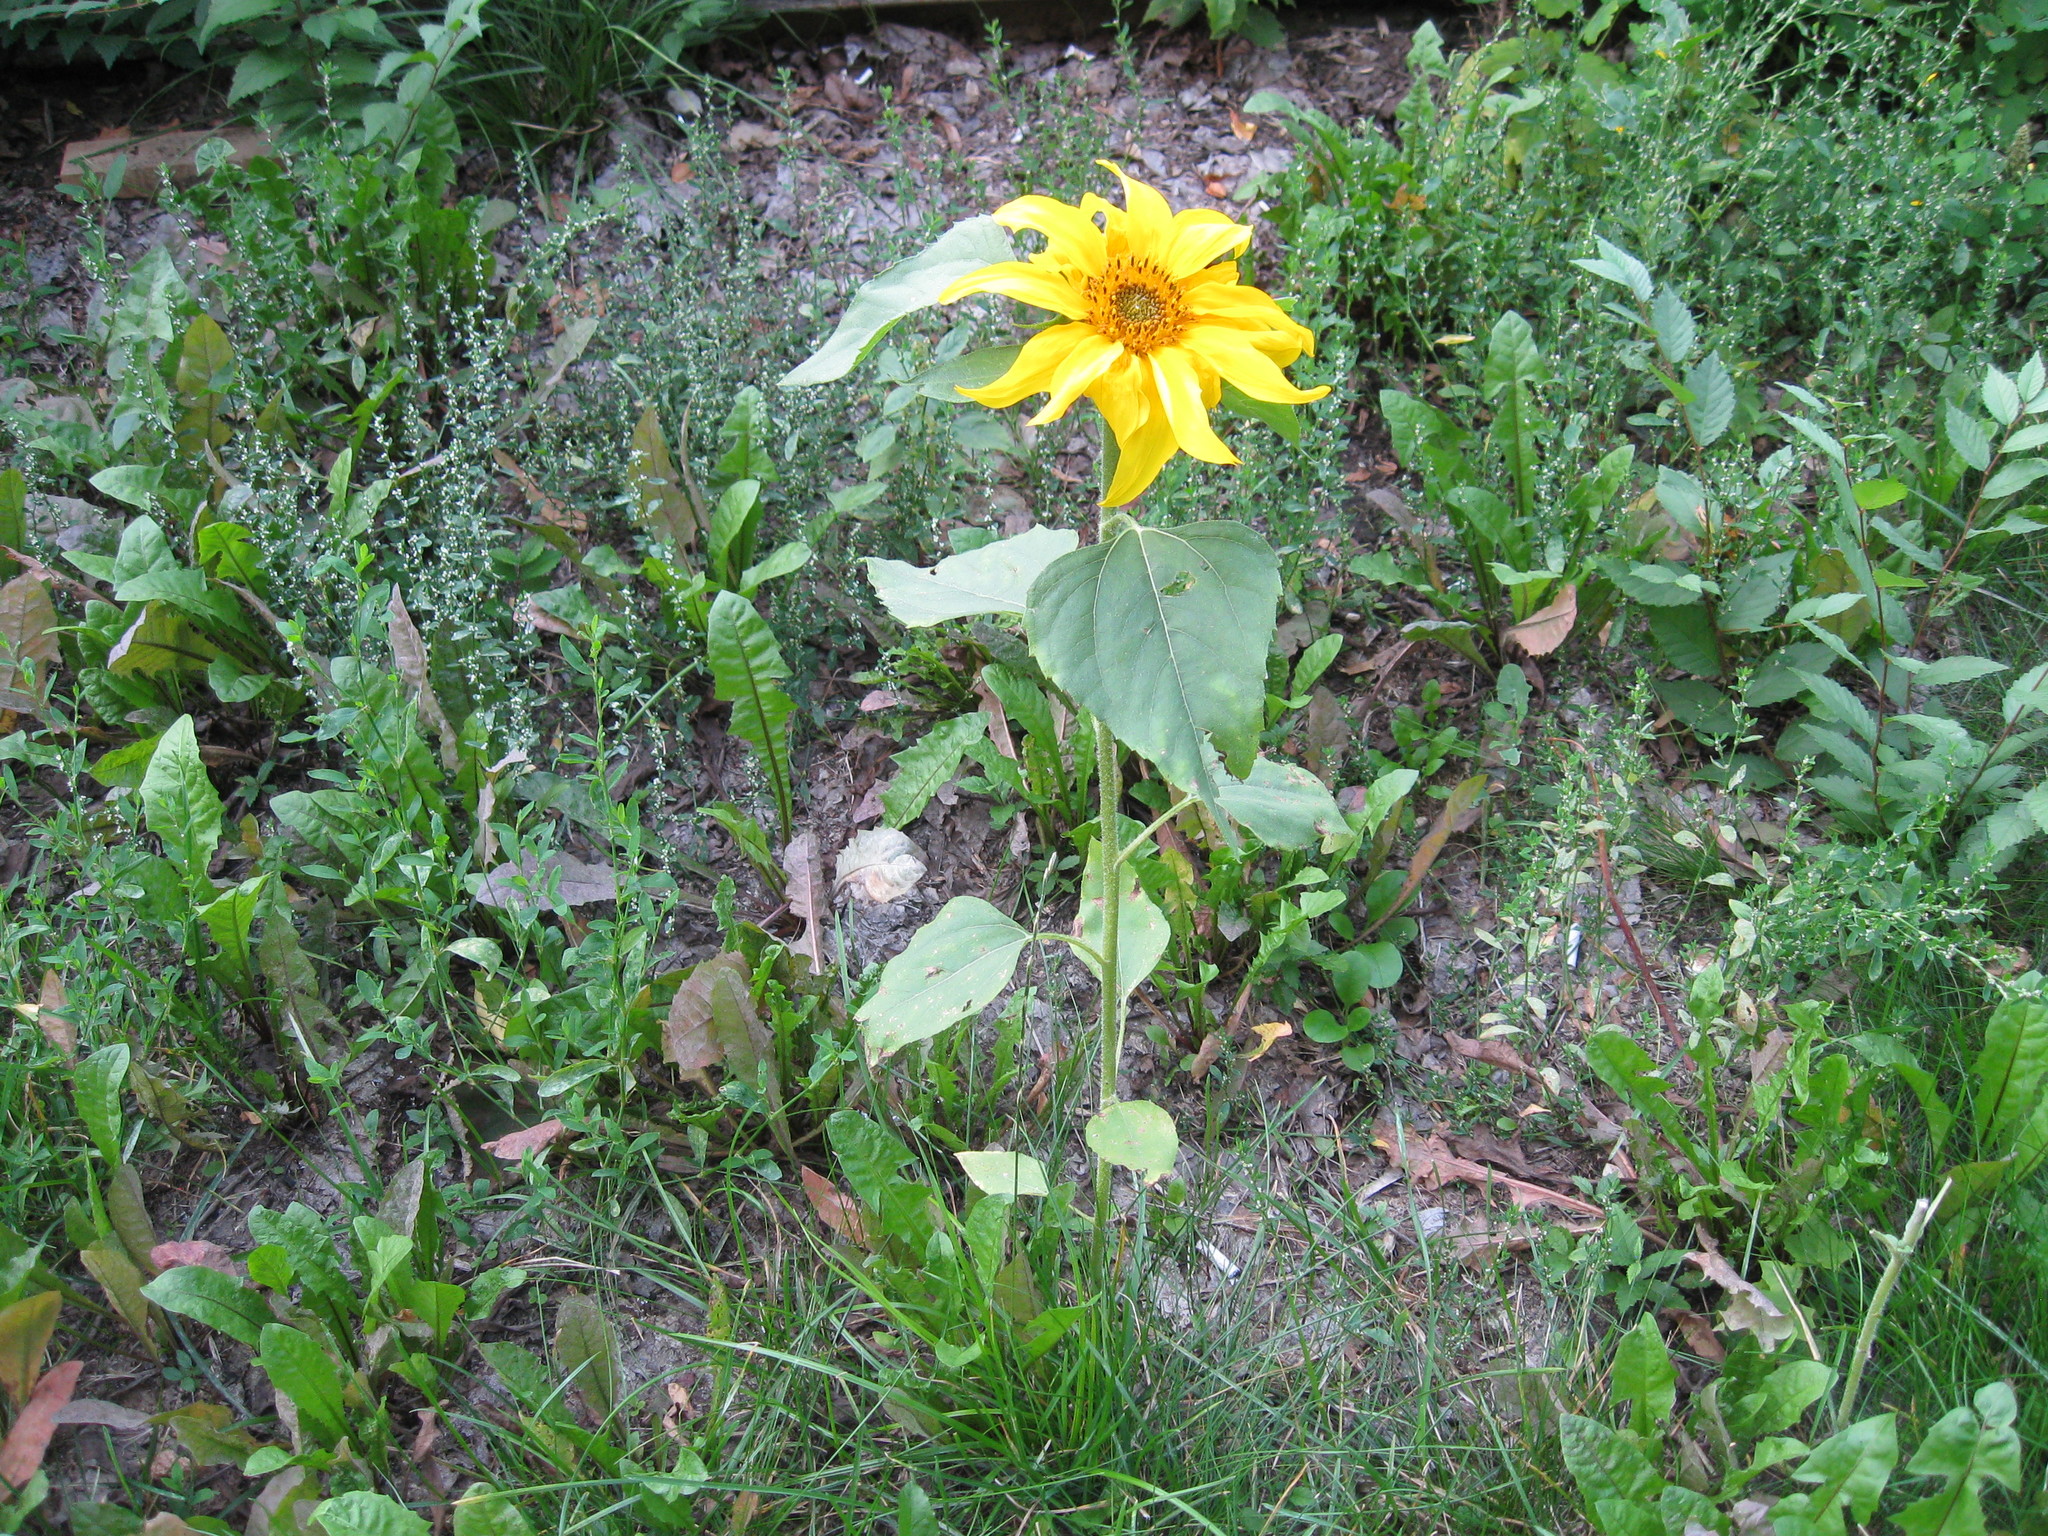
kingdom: Plantae
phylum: Tracheophyta
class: Magnoliopsida
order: Asterales
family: Asteraceae
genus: Helianthus
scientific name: Helianthus annuus
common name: Sunflower
